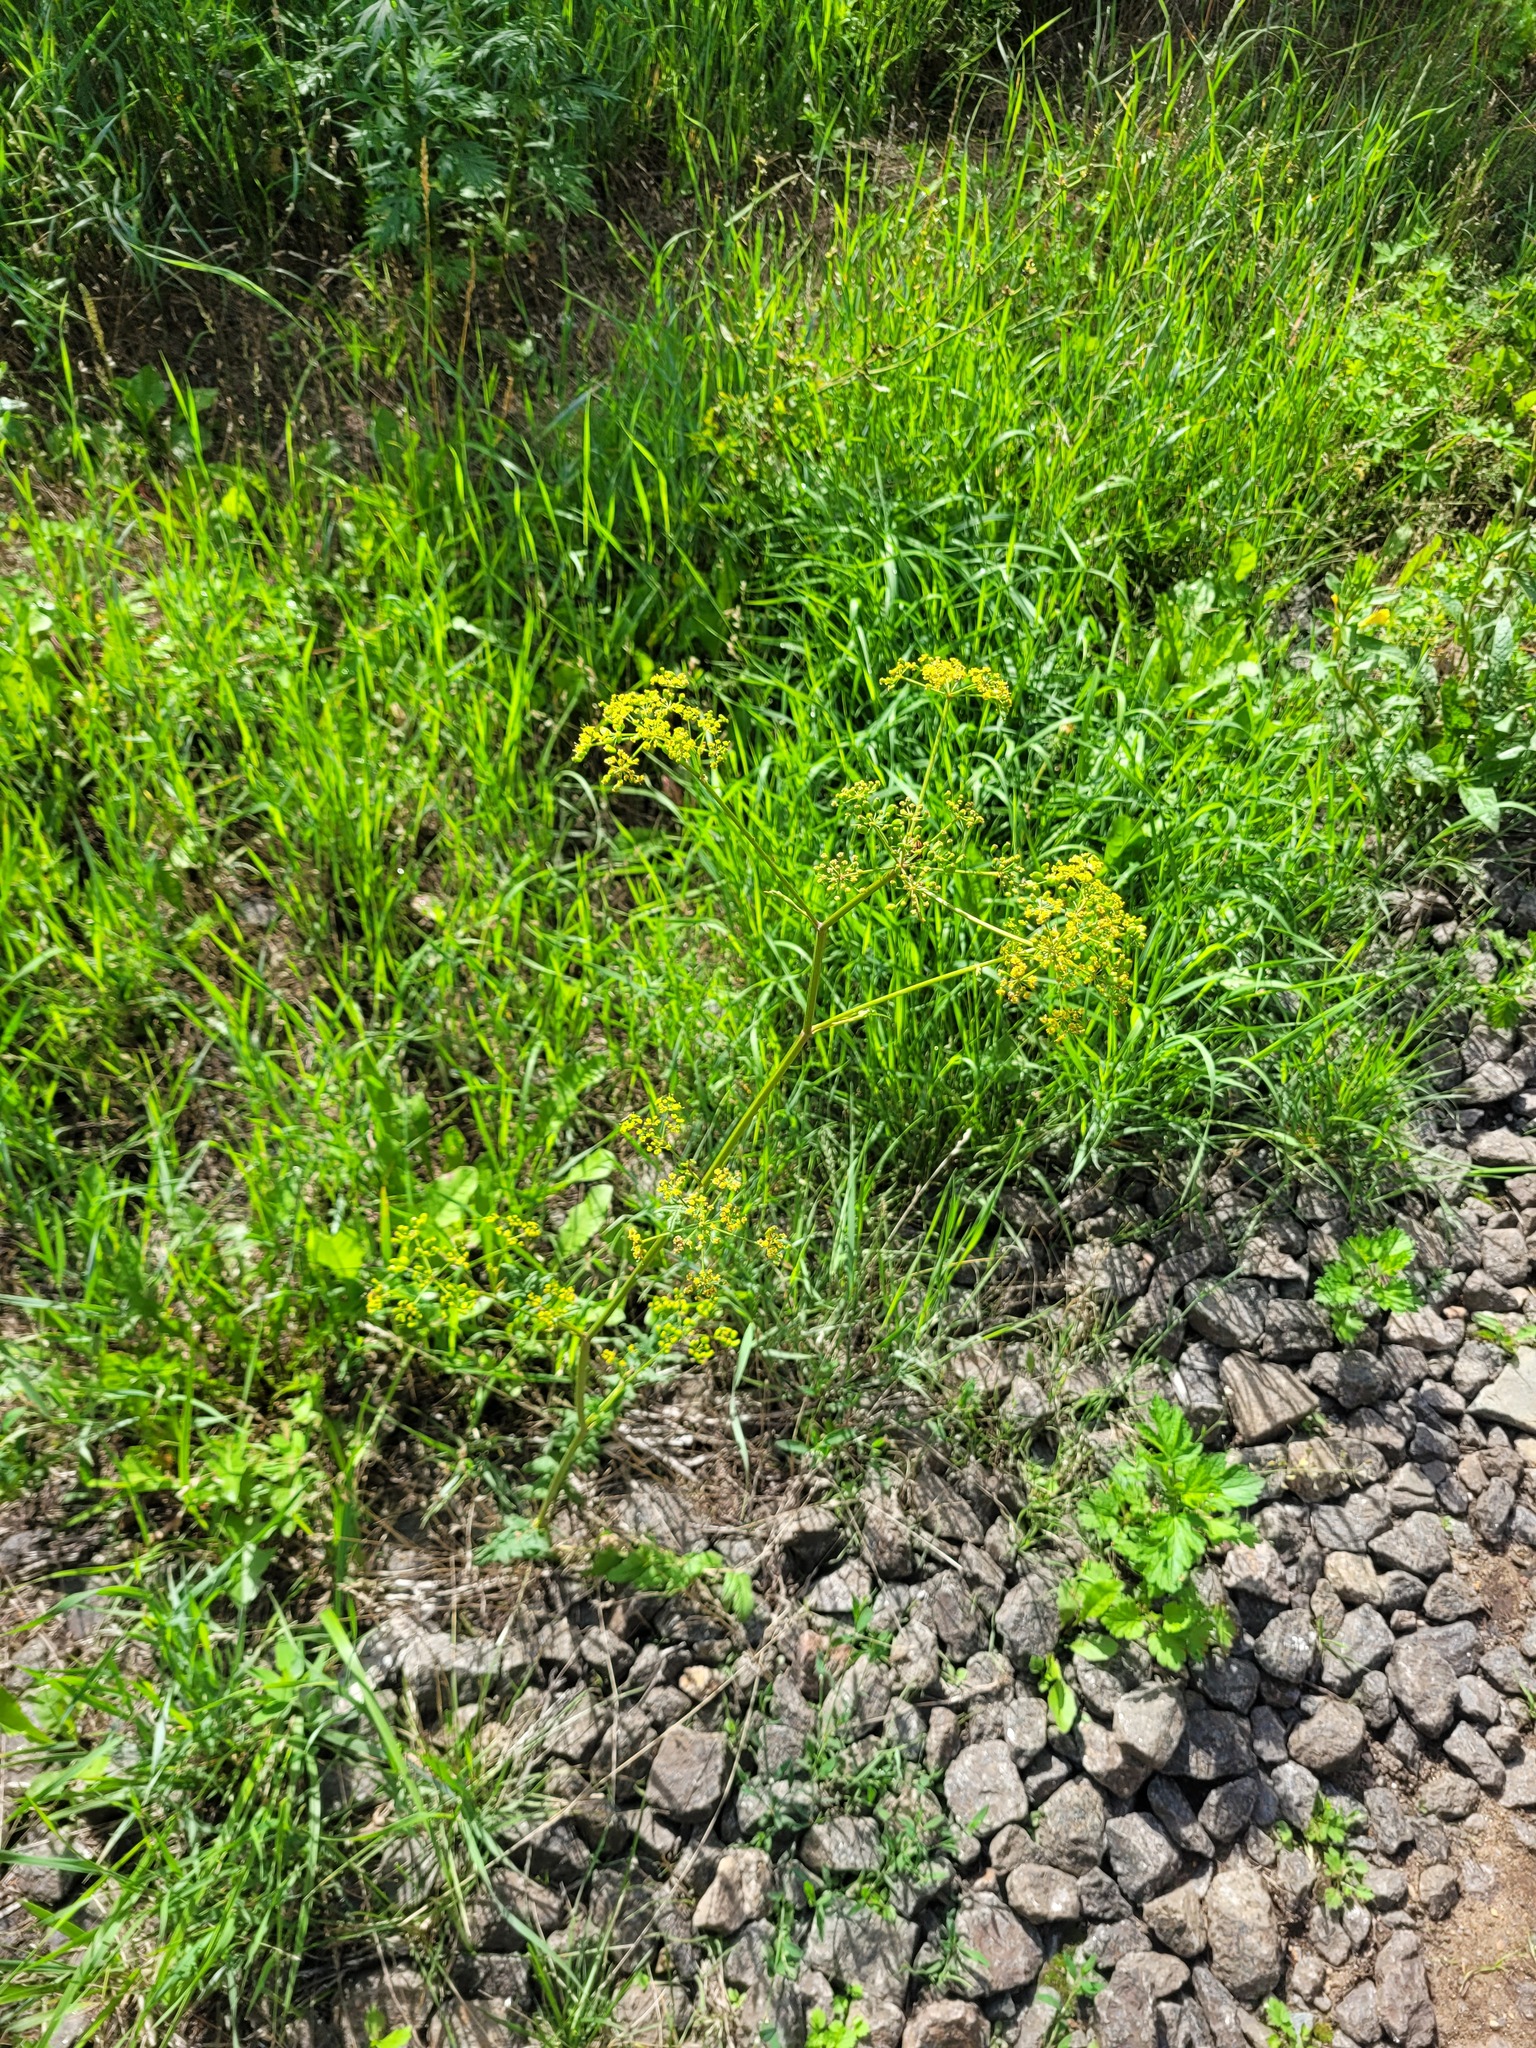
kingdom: Plantae
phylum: Tracheophyta
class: Magnoliopsida
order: Apiales
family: Apiaceae
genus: Pastinaca
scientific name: Pastinaca sativa
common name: Wild parsnip
